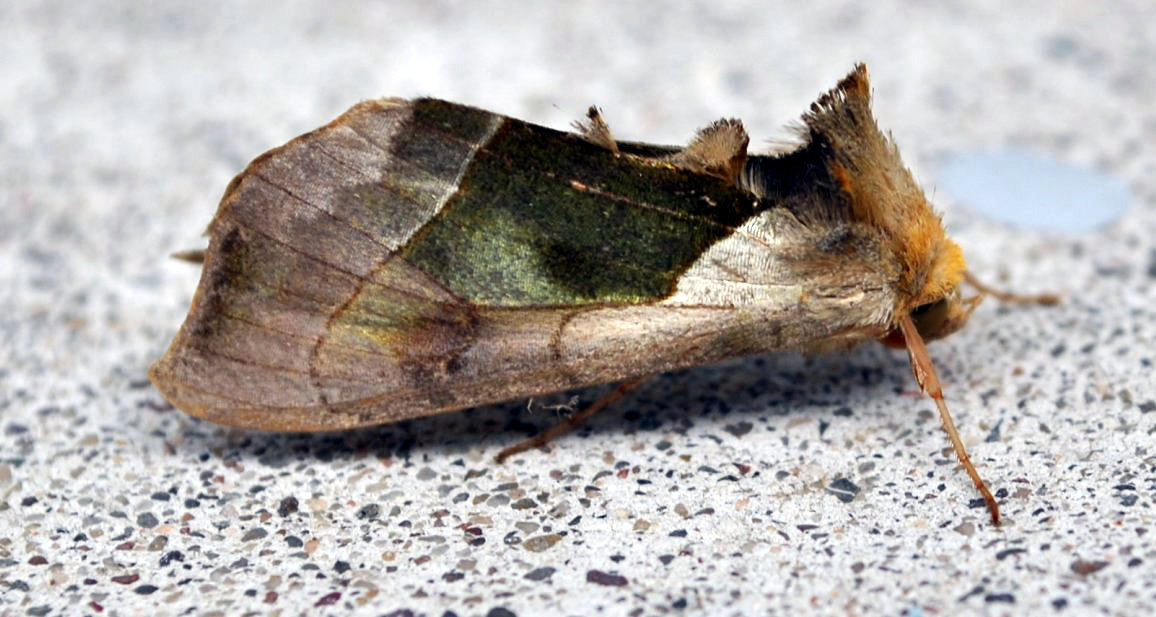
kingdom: Animalia
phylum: Arthropoda
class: Insecta
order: Lepidoptera
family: Noctuidae
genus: Diachrysia
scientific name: Diachrysia balluca
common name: Green-patched looper moth
